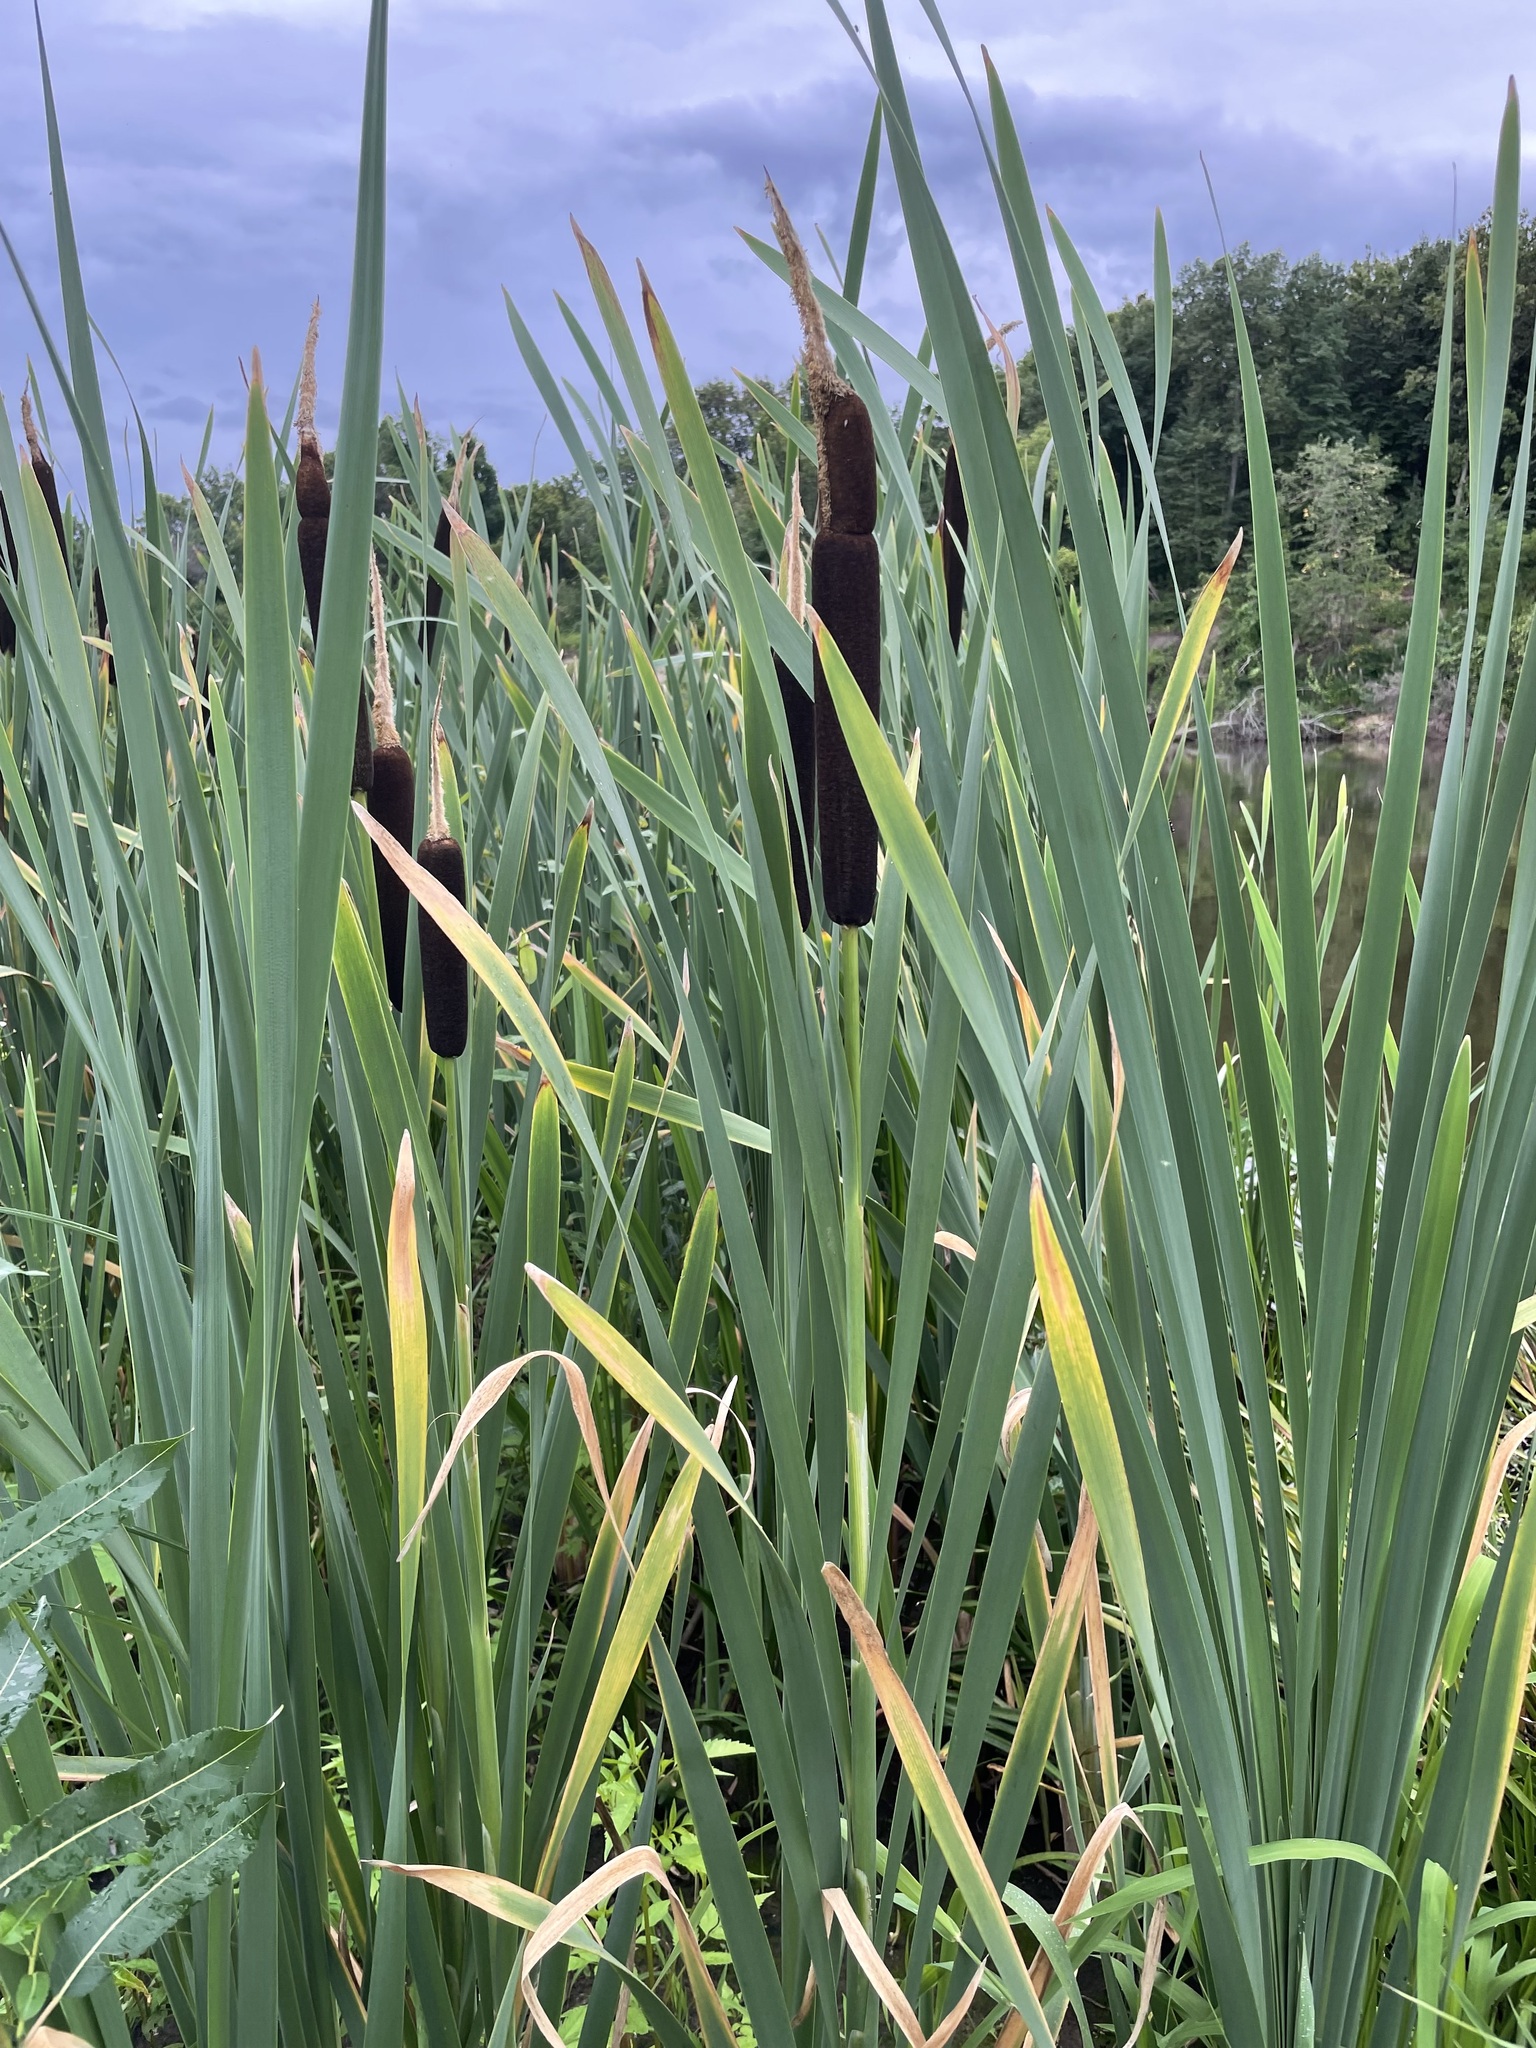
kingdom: Plantae
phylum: Tracheophyta
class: Liliopsida
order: Poales
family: Typhaceae
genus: Typha
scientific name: Typha latifolia
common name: Broadleaf cattail
